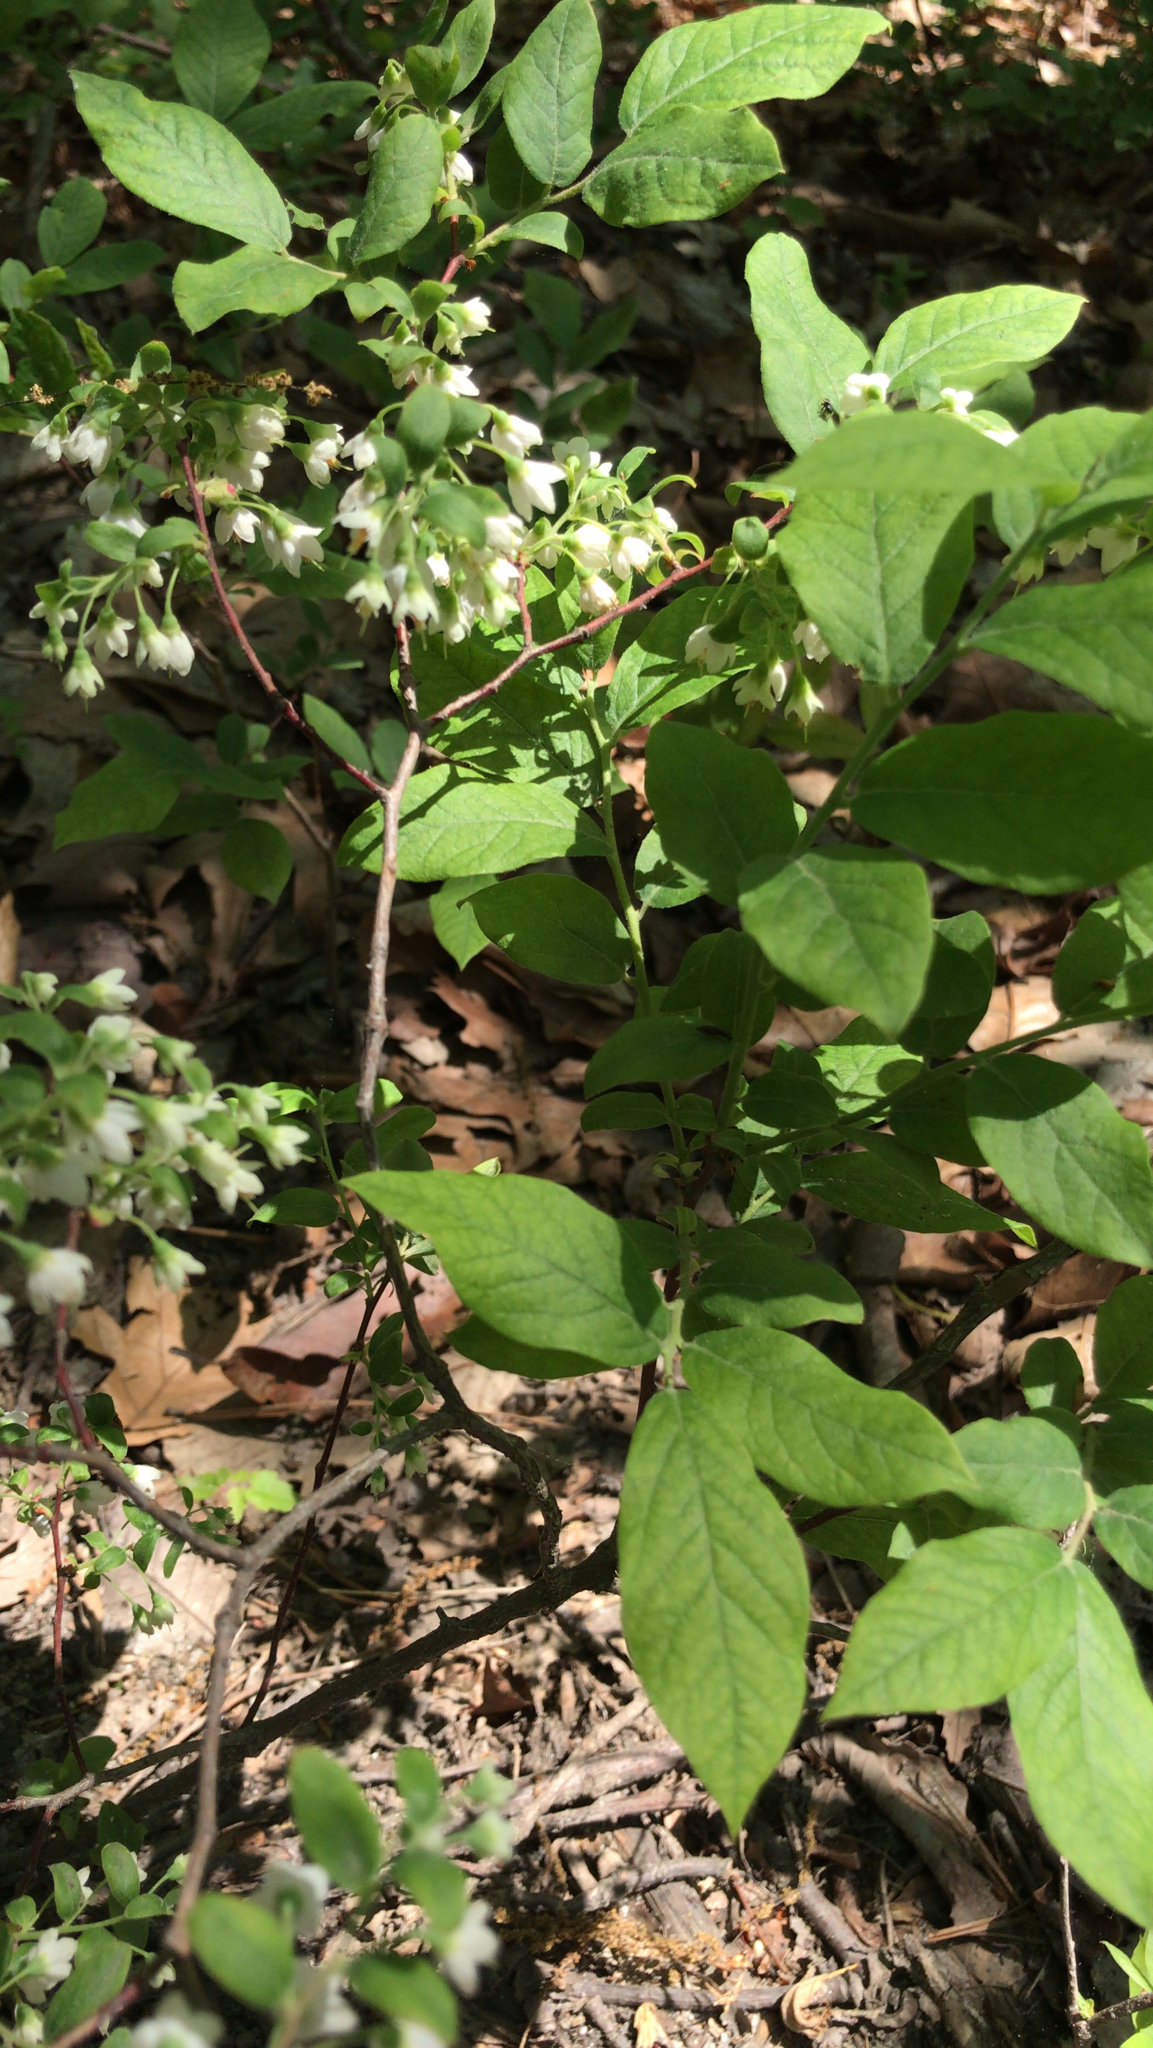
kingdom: Plantae
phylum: Tracheophyta
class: Magnoliopsida
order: Ericales
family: Ericaceae
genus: Vaccinium
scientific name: Vaccinium stamineum
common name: Deerberry
